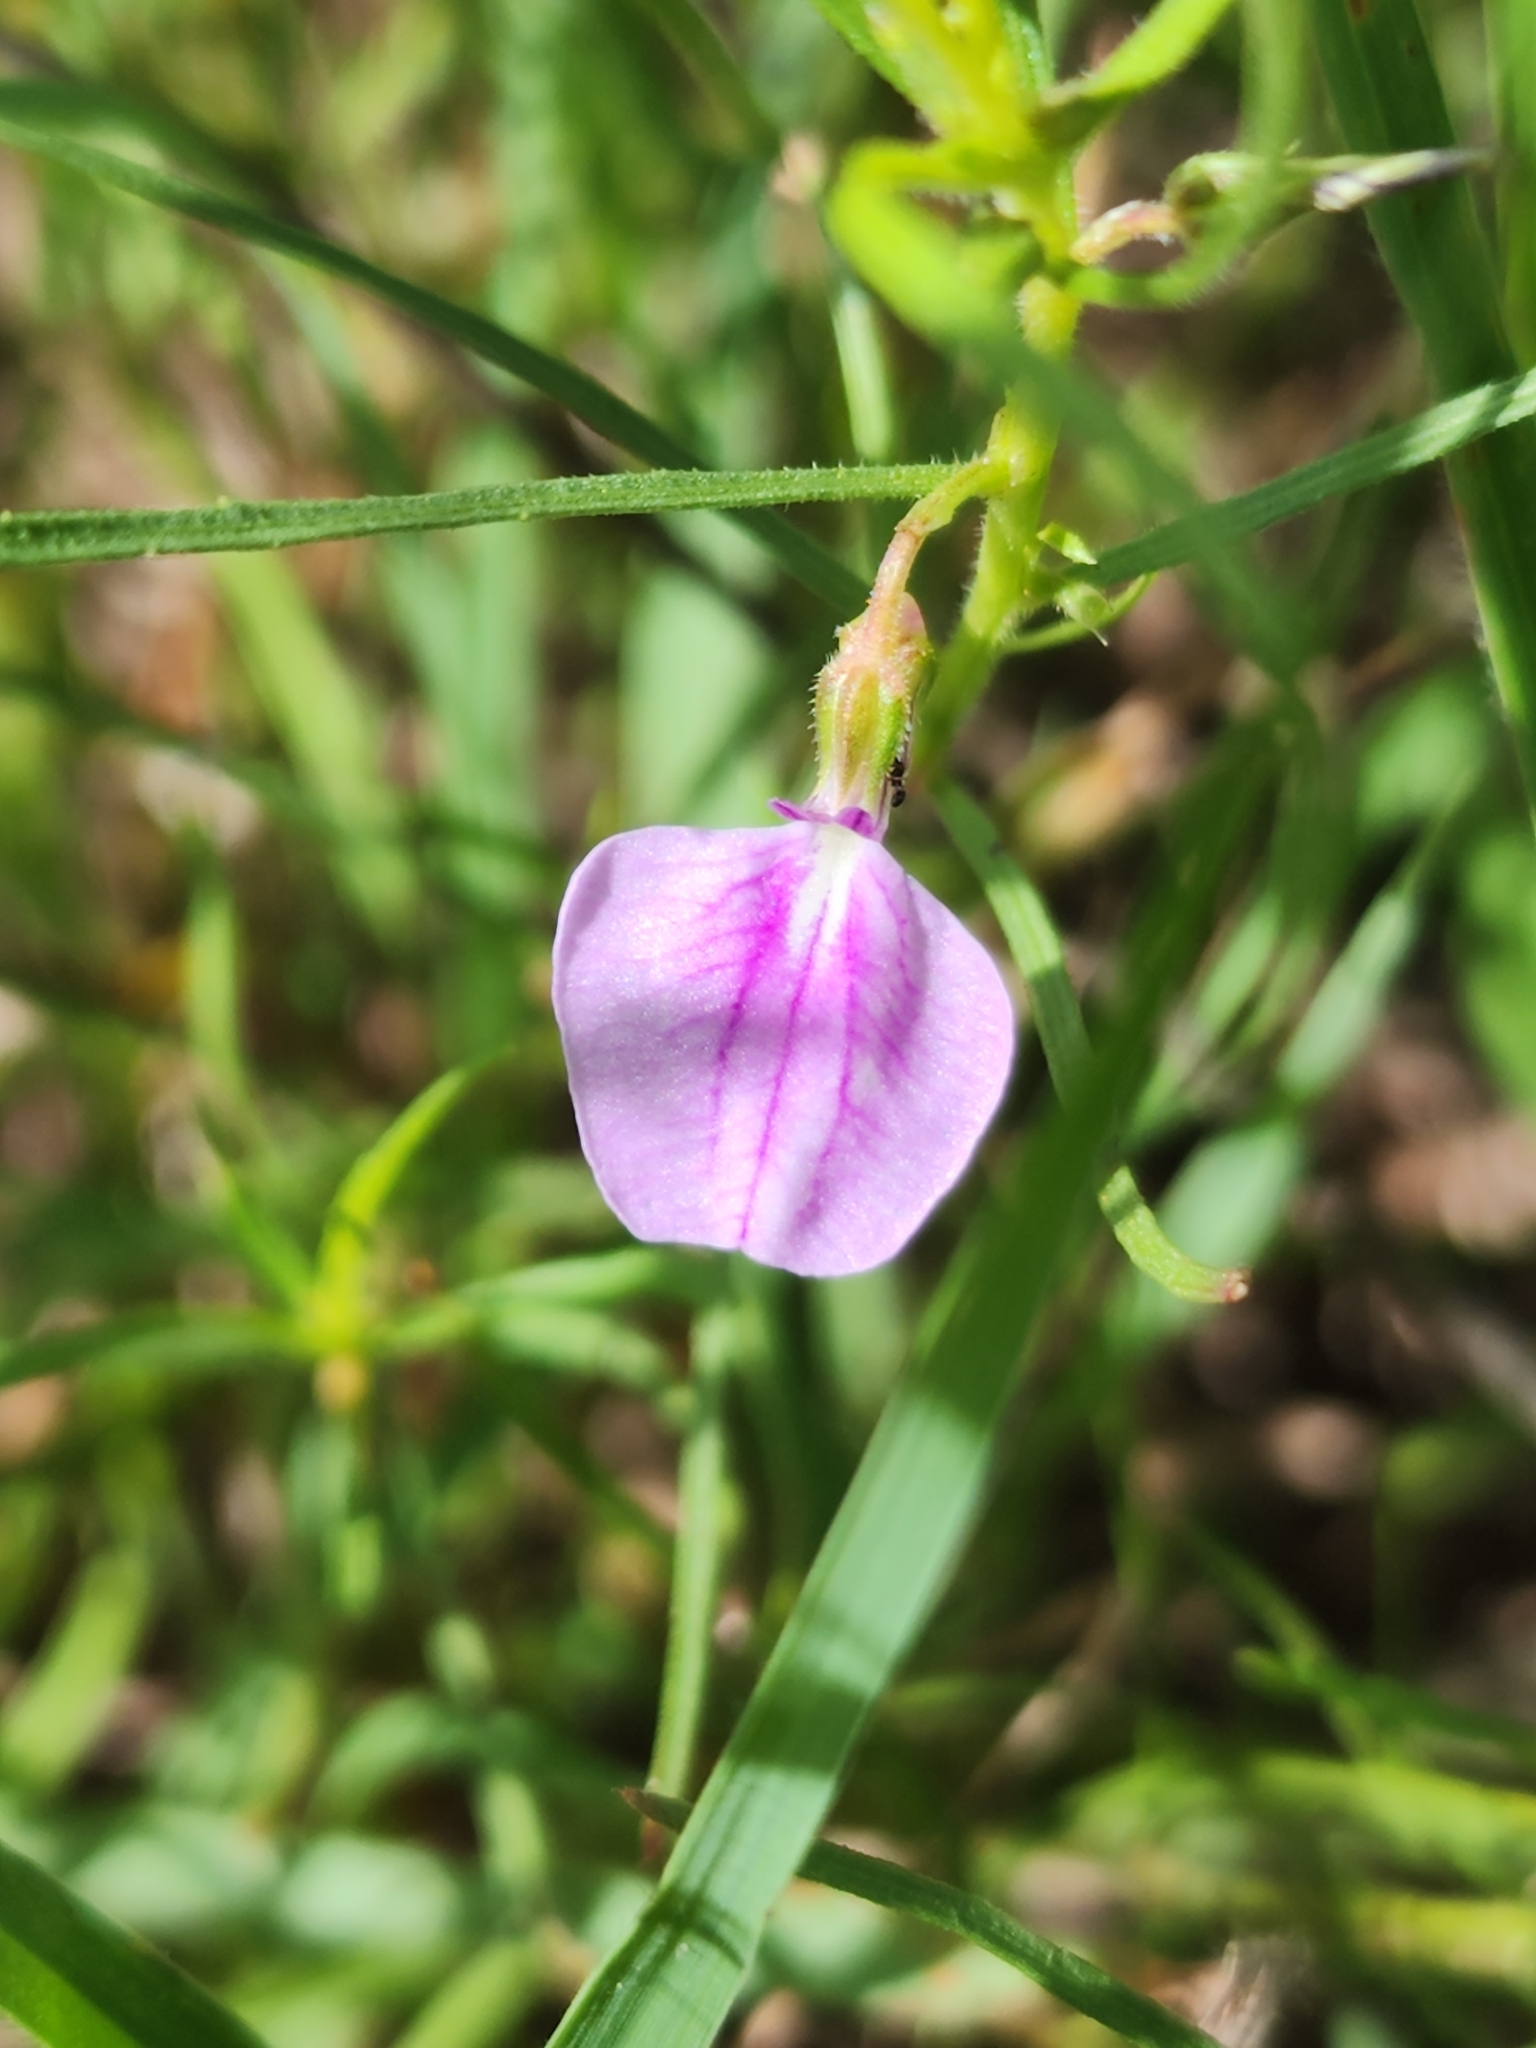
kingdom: Plantae
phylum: Tracheophyta
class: Magnoliopsida
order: Malpighiales
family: Violaceae
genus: Pigea
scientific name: Pigea enneasperma
